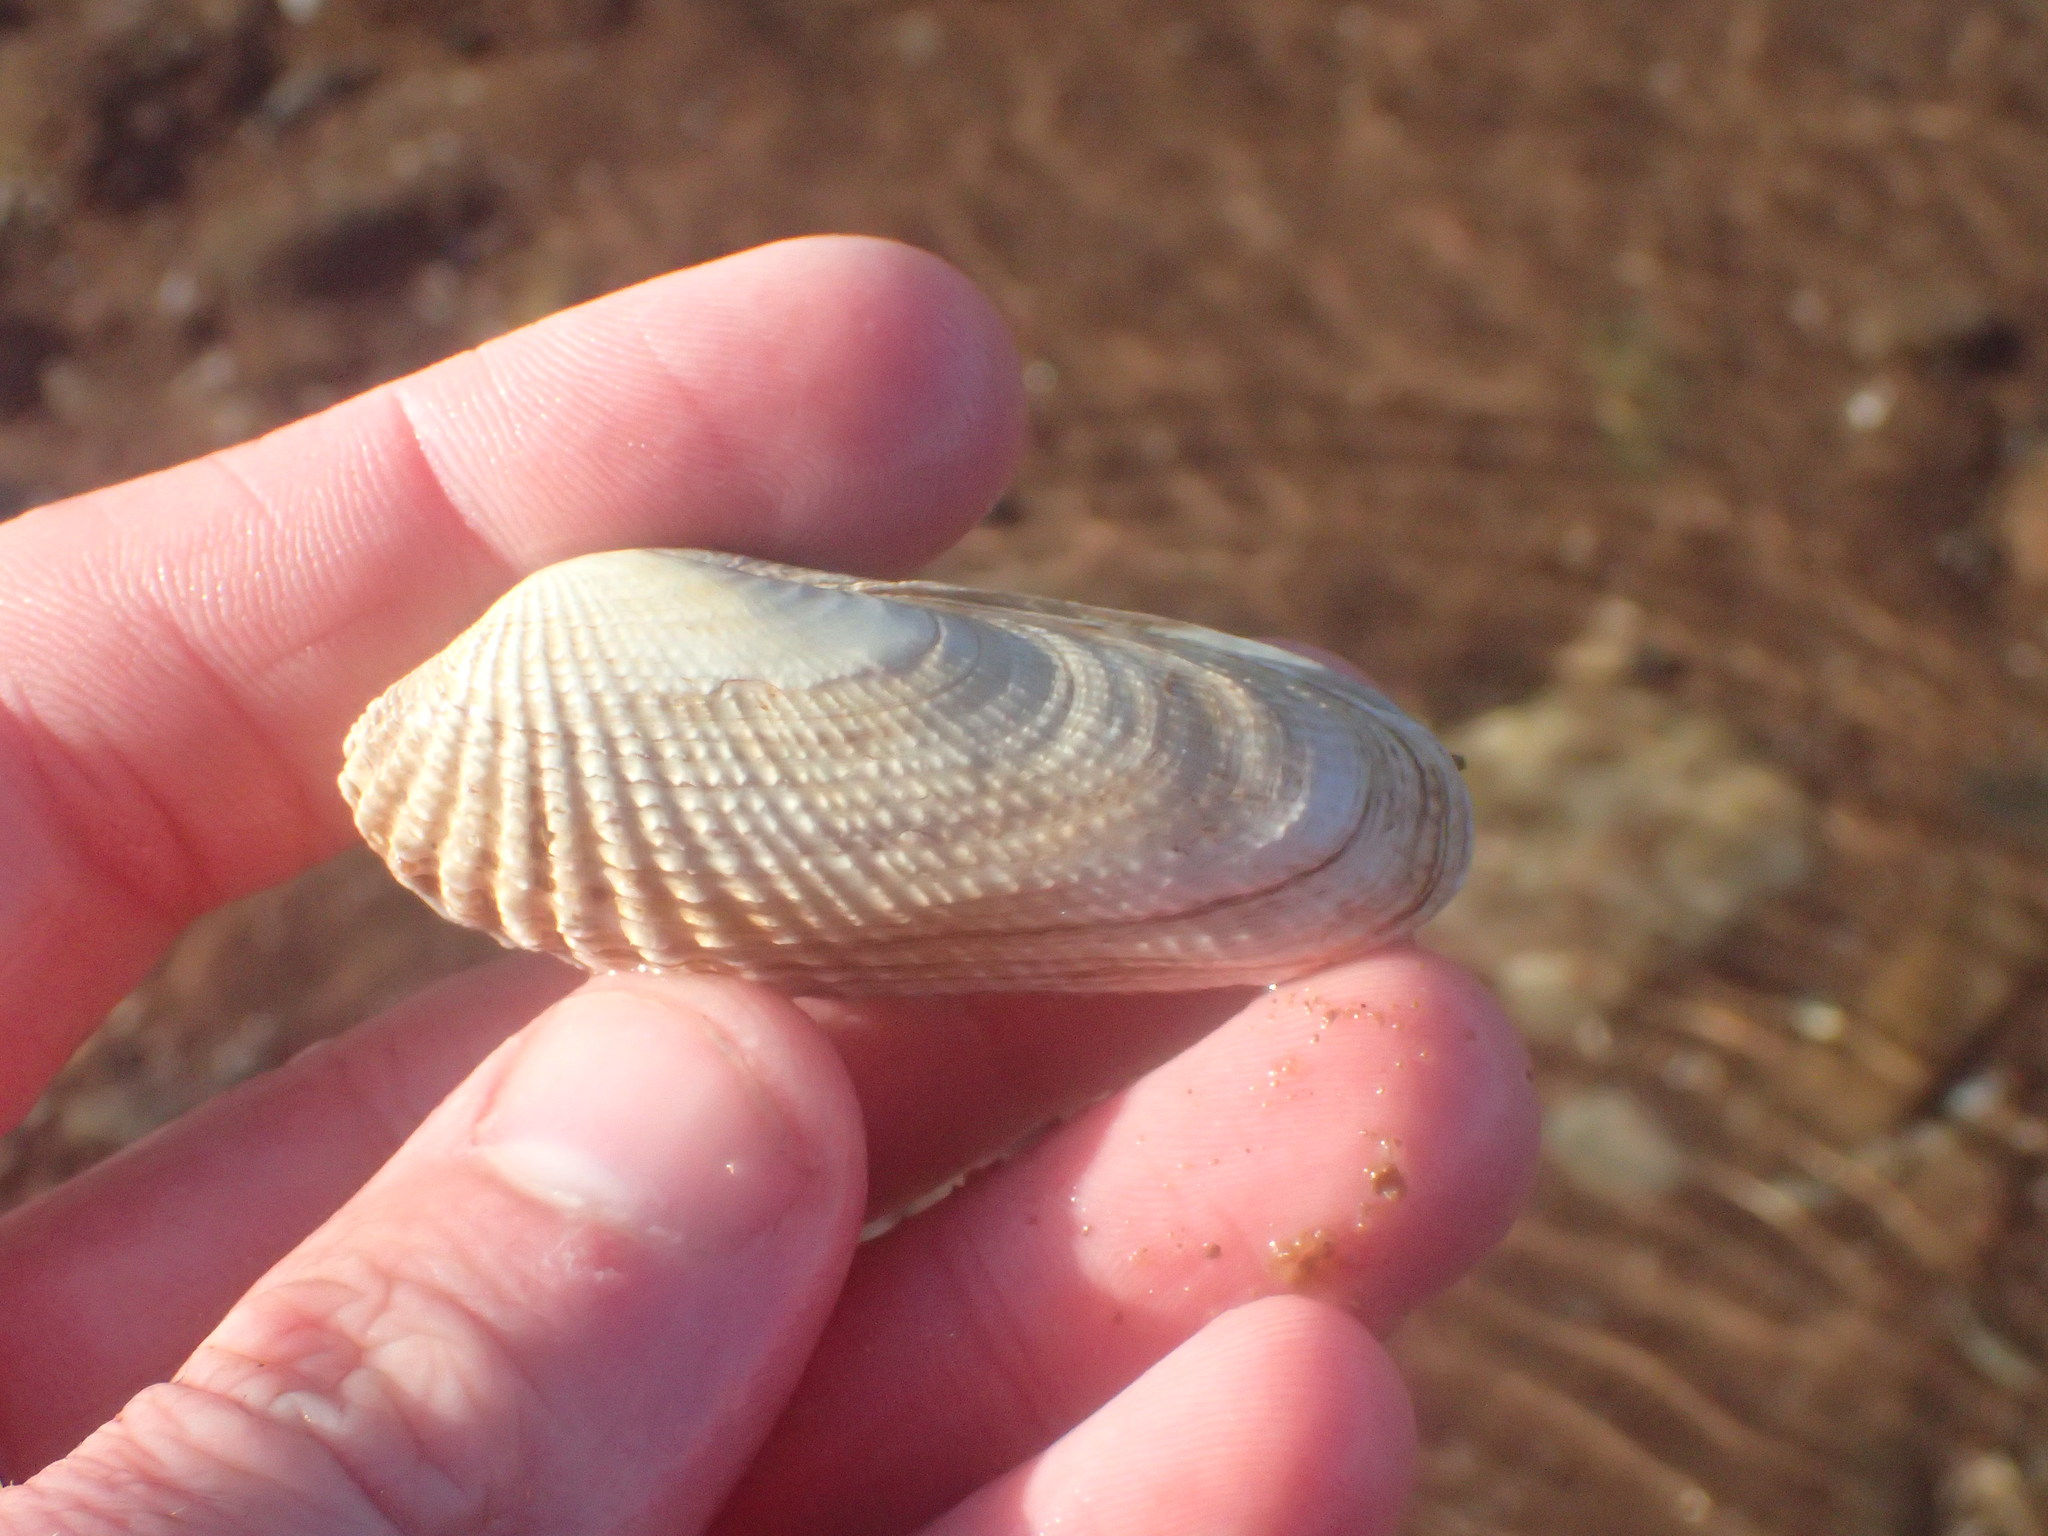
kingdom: Animalia
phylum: Mollusca
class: Bivalvia
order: Venerida
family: Veneridae
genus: Petricolaria
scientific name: Petricolaria pholadiformis
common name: American piddock
